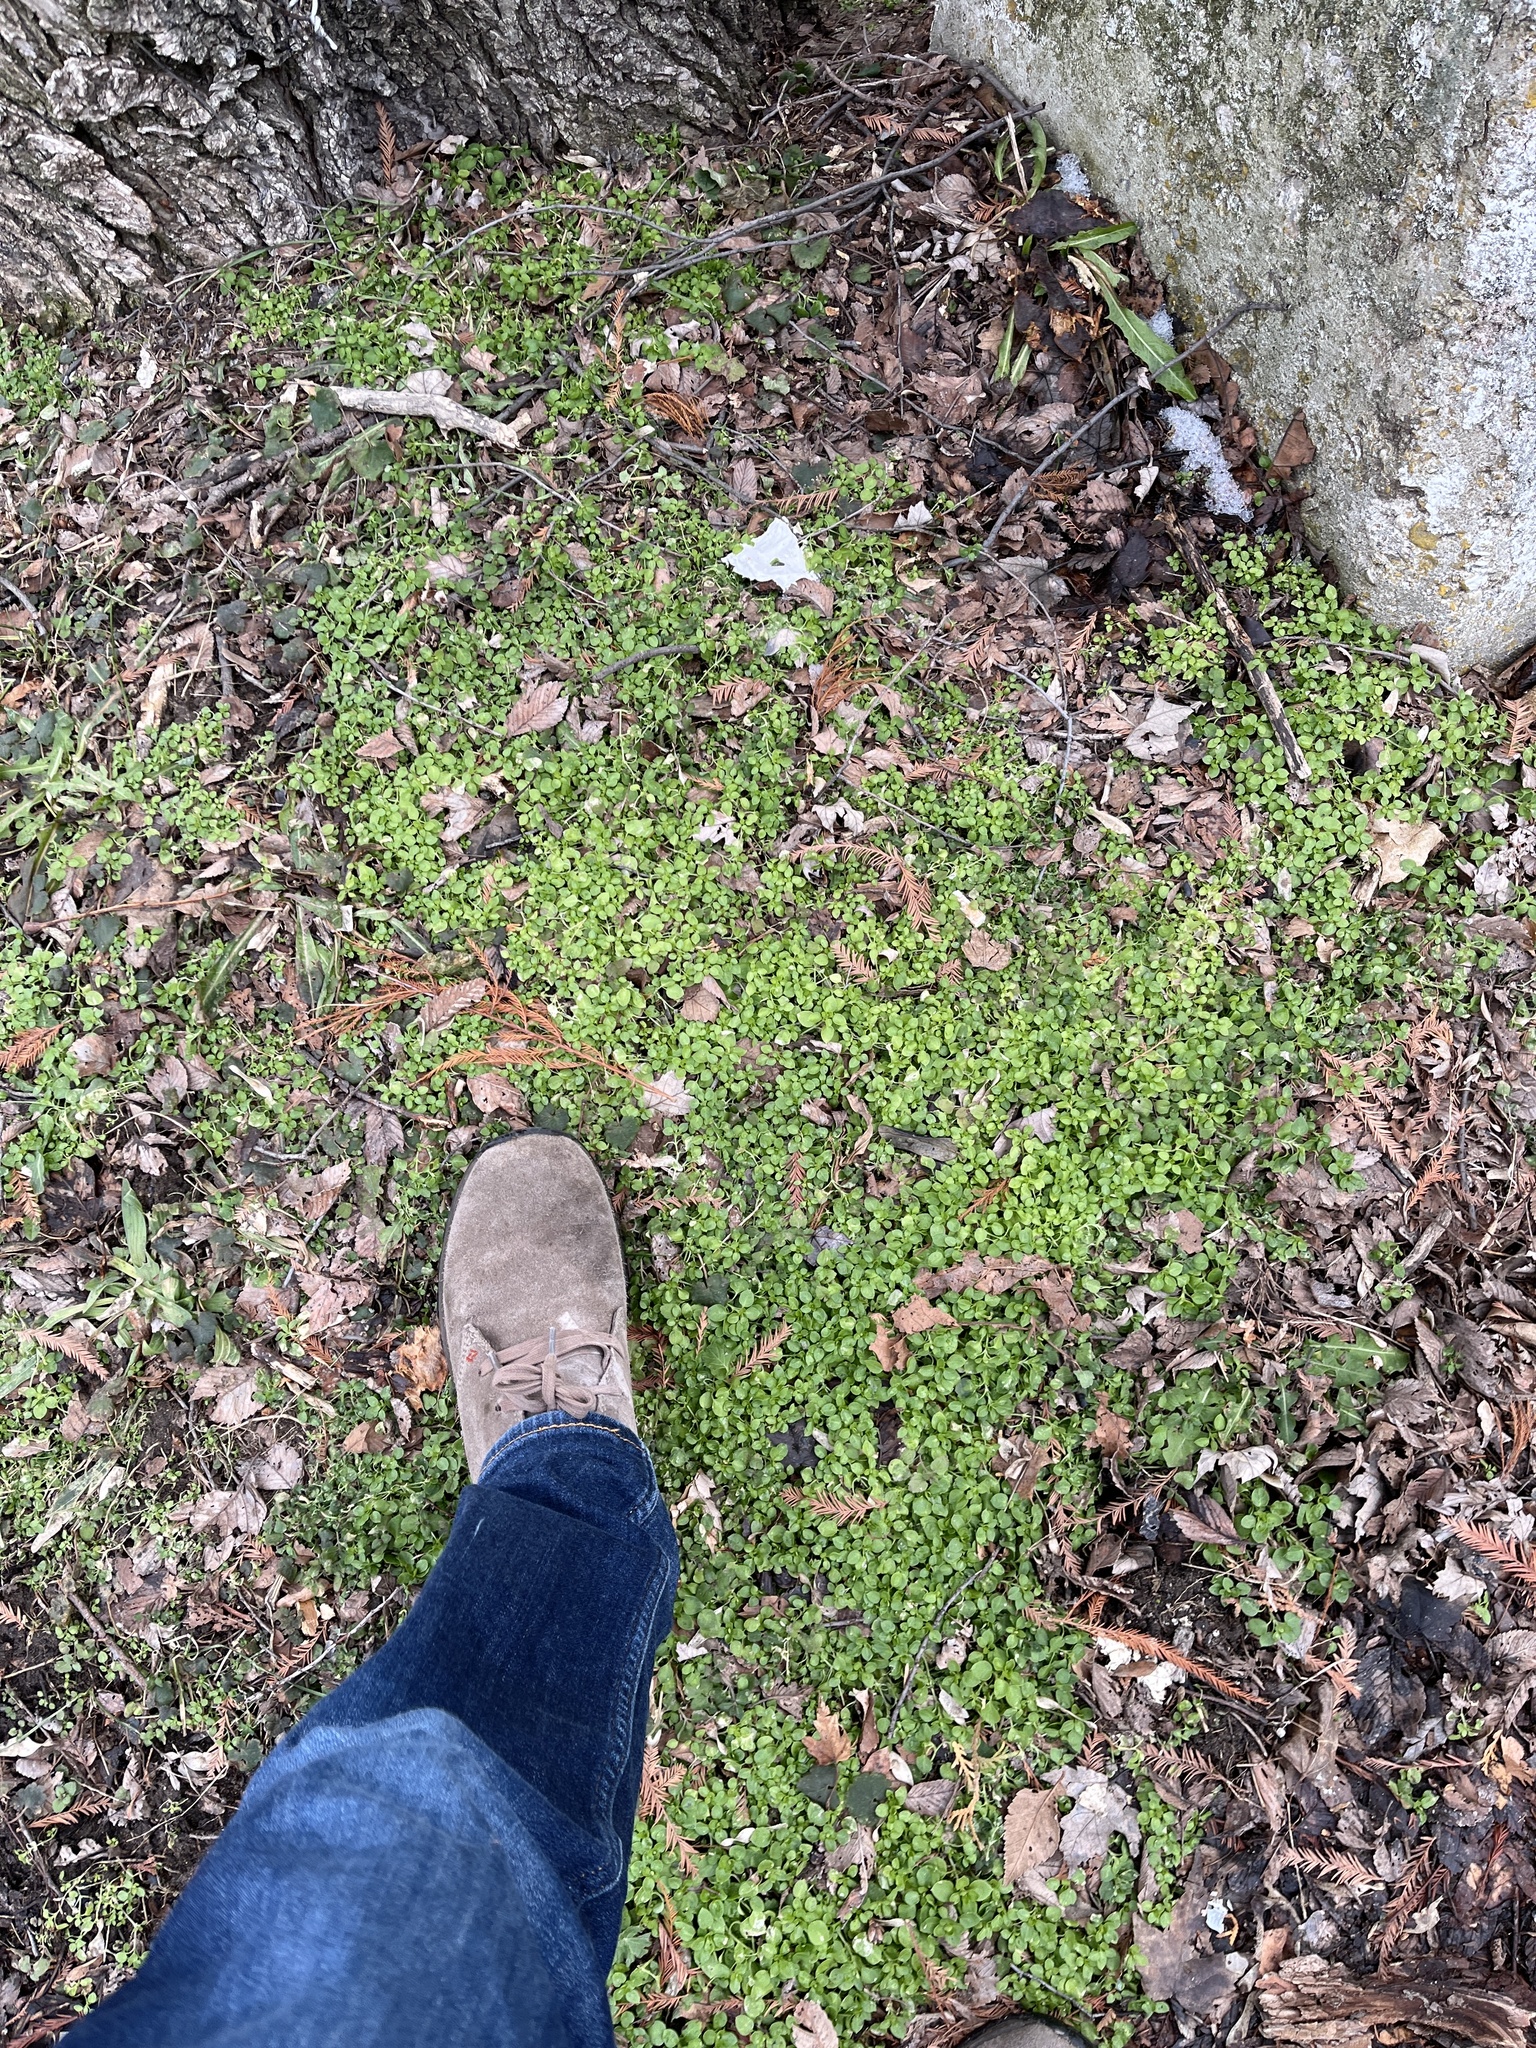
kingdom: Plantae
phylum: Tracheophyta
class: Magnoliopsida
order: Caryophyllales
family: Caryophyllaceae
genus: Stellaria
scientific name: Stellaria media
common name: Common chickweed
